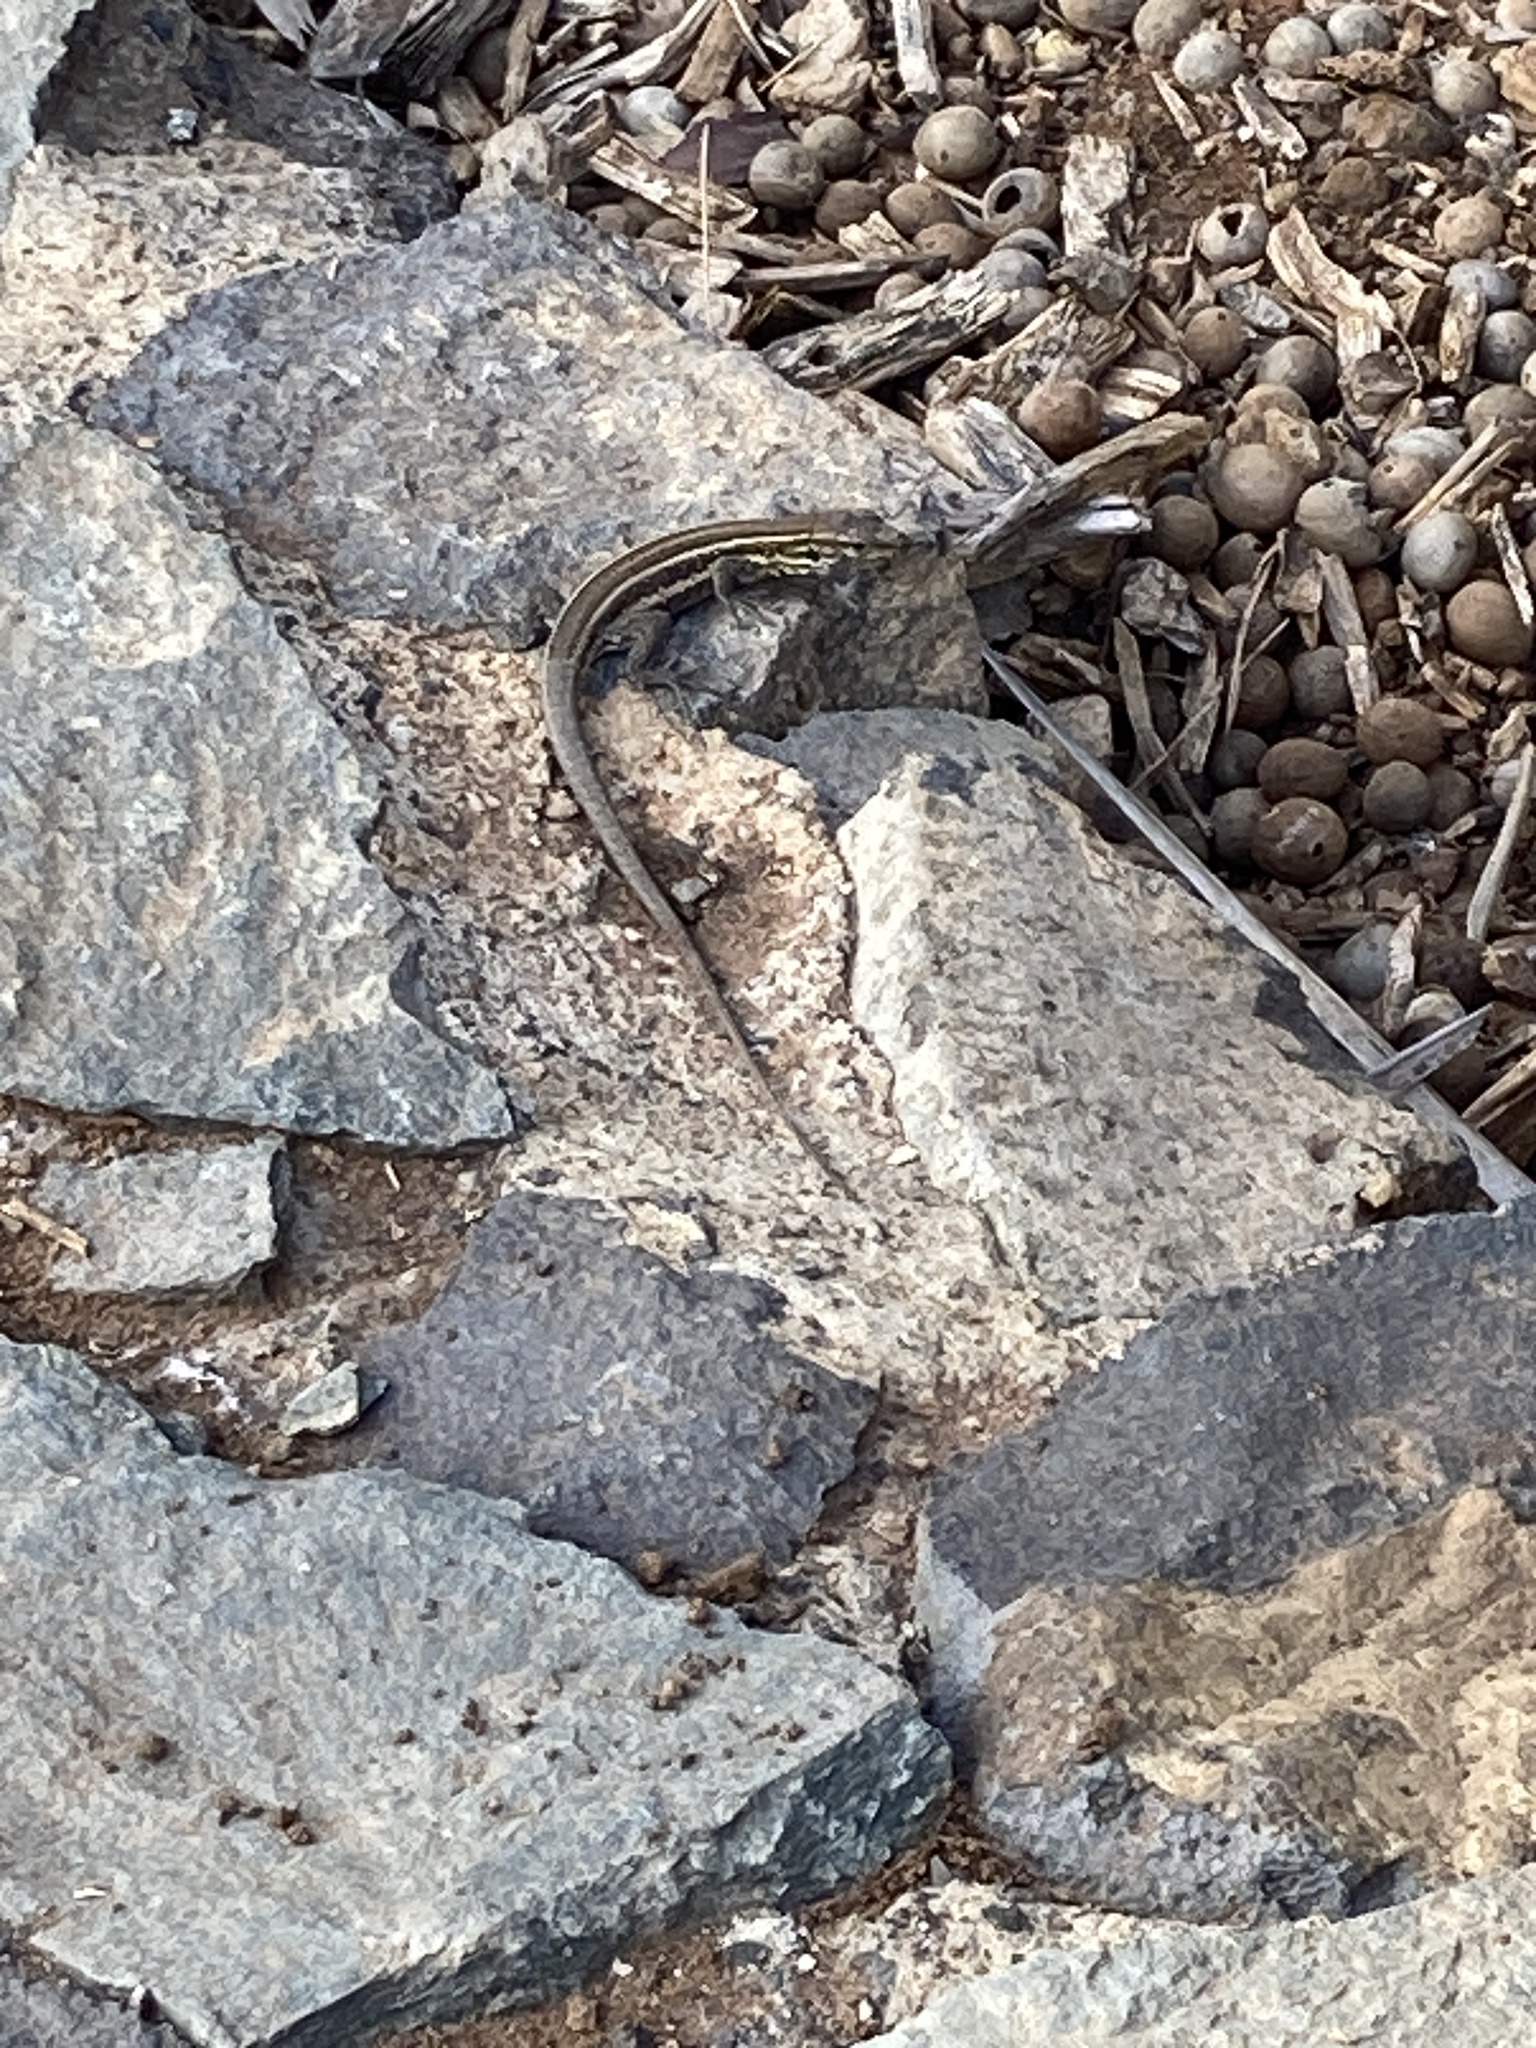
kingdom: Animalia
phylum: Chordata
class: Squamata
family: Lacertidae
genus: Gallotia
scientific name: Gallotia galloti
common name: Gallot's lizard
